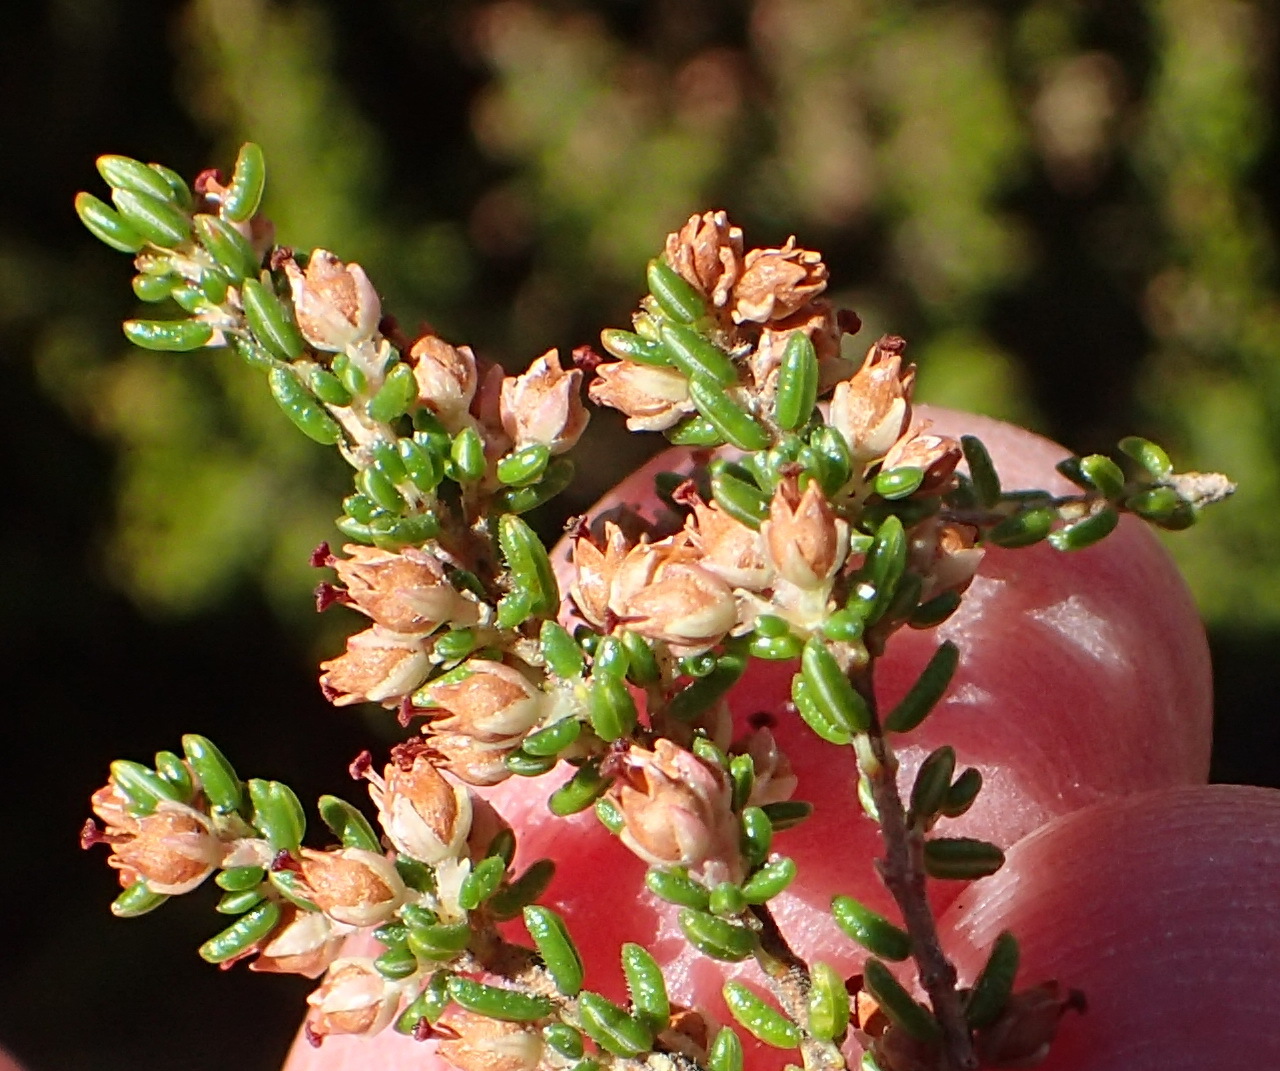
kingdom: Plantae
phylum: Tracheophyta
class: Magnoliopsida
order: Ericales
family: Ericaceae
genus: Erica
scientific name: Erica hispidula
